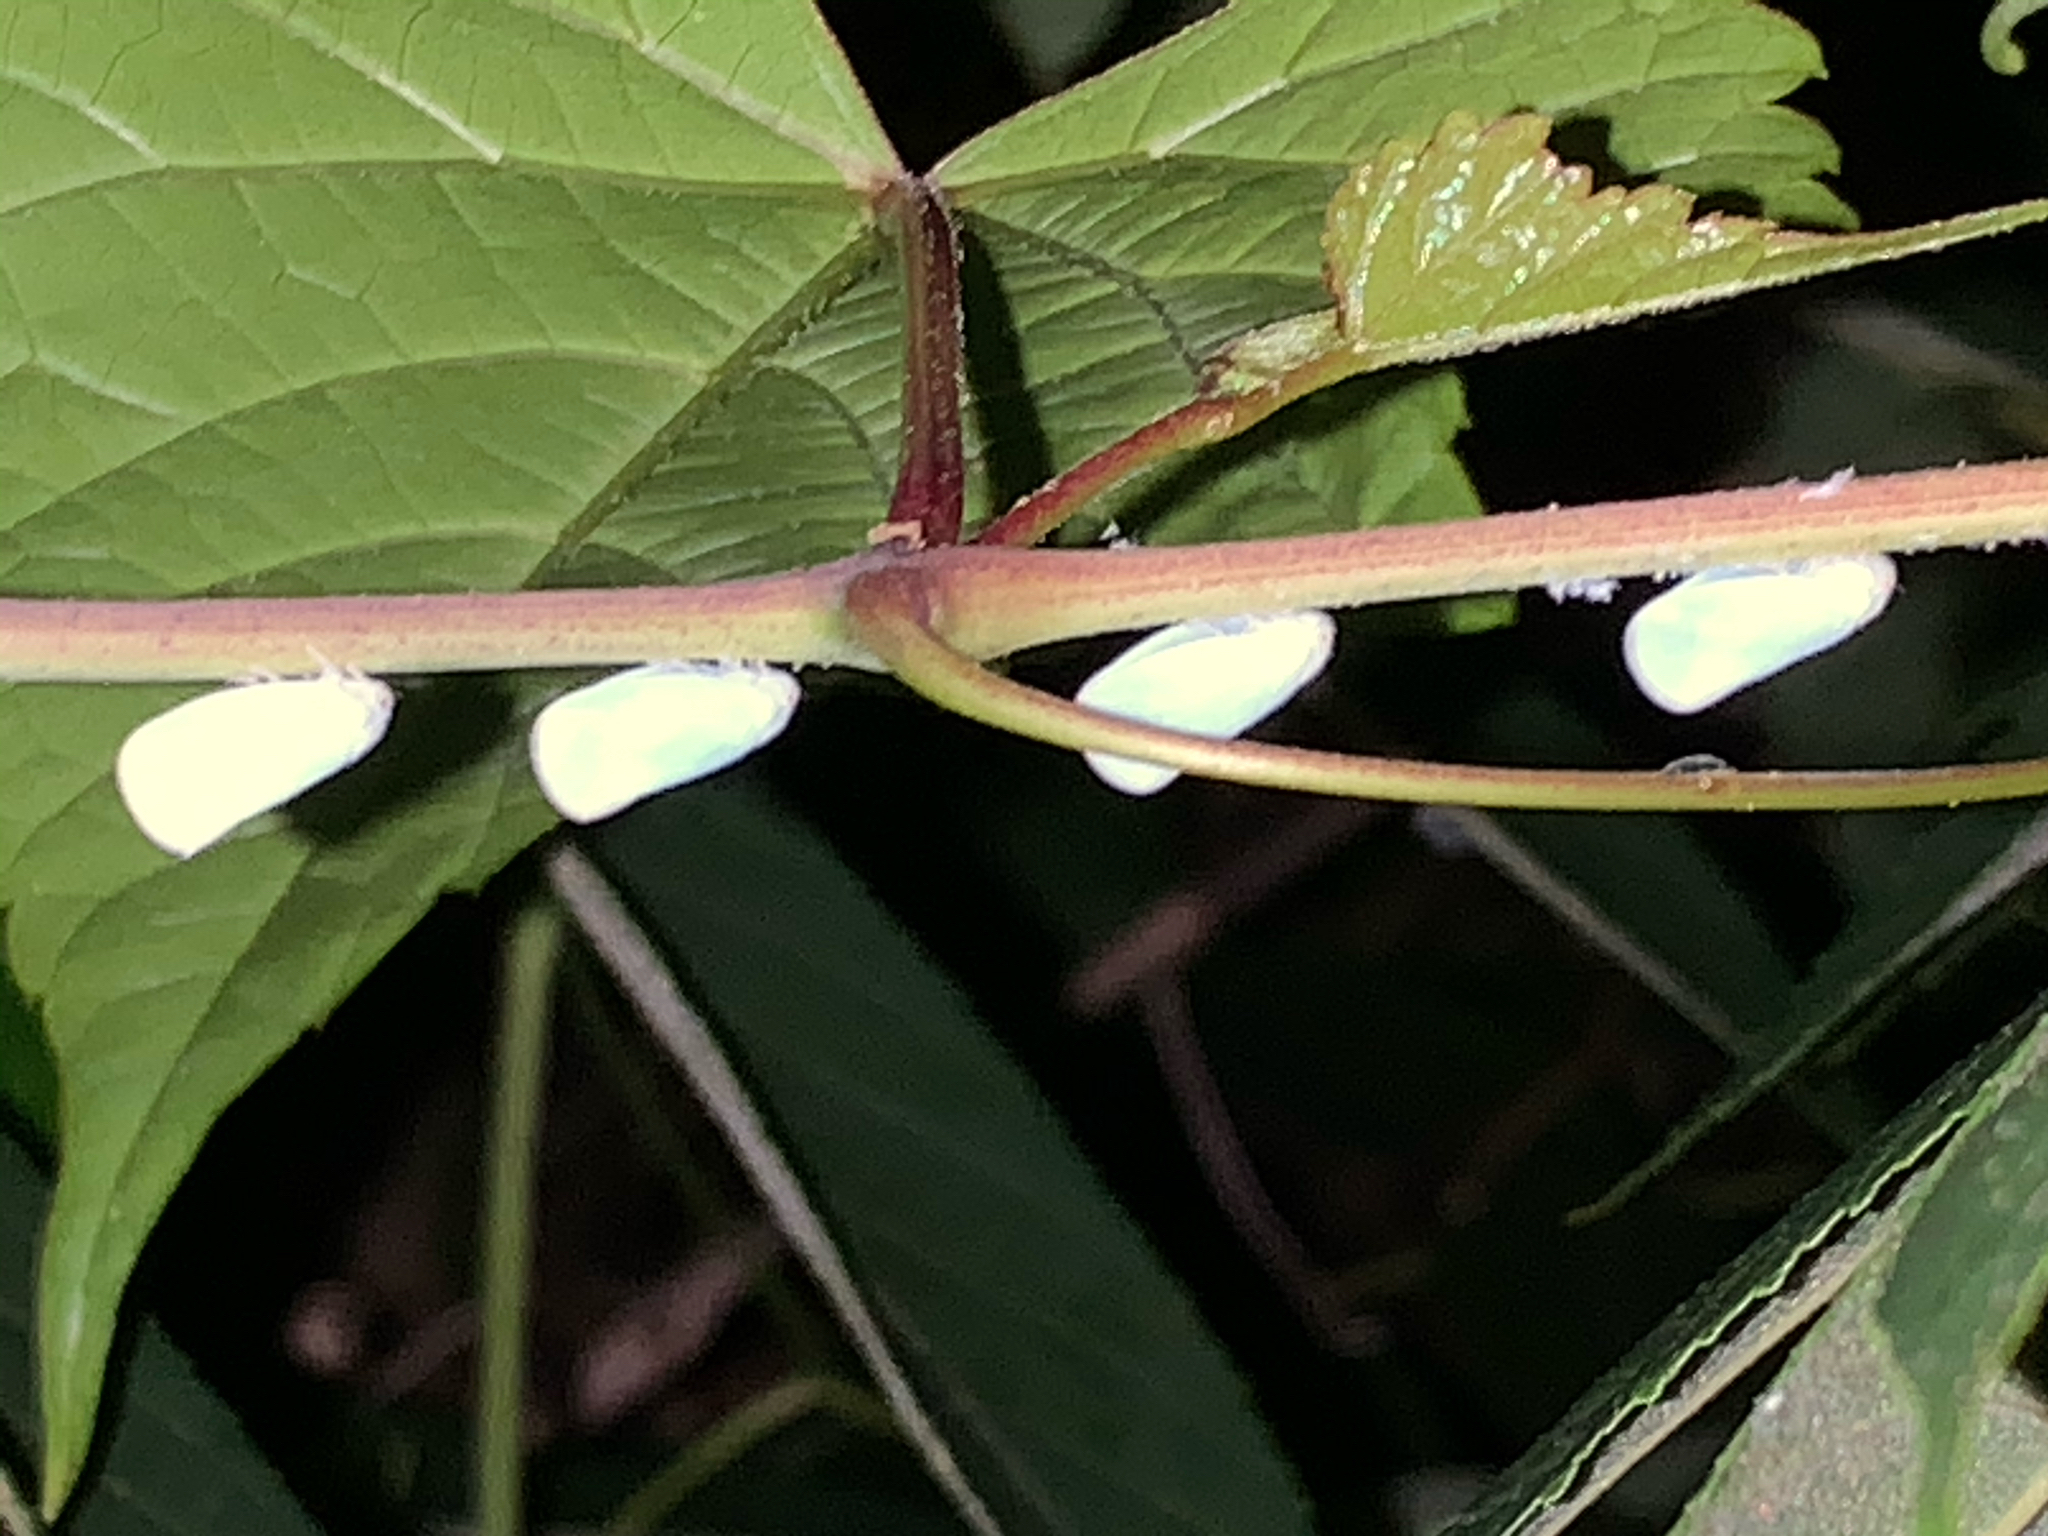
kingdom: Animalia
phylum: Arthropoda
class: Insecta
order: Hemiptera
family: Flatidae
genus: Ormenoides
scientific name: Ormenoides venusta
